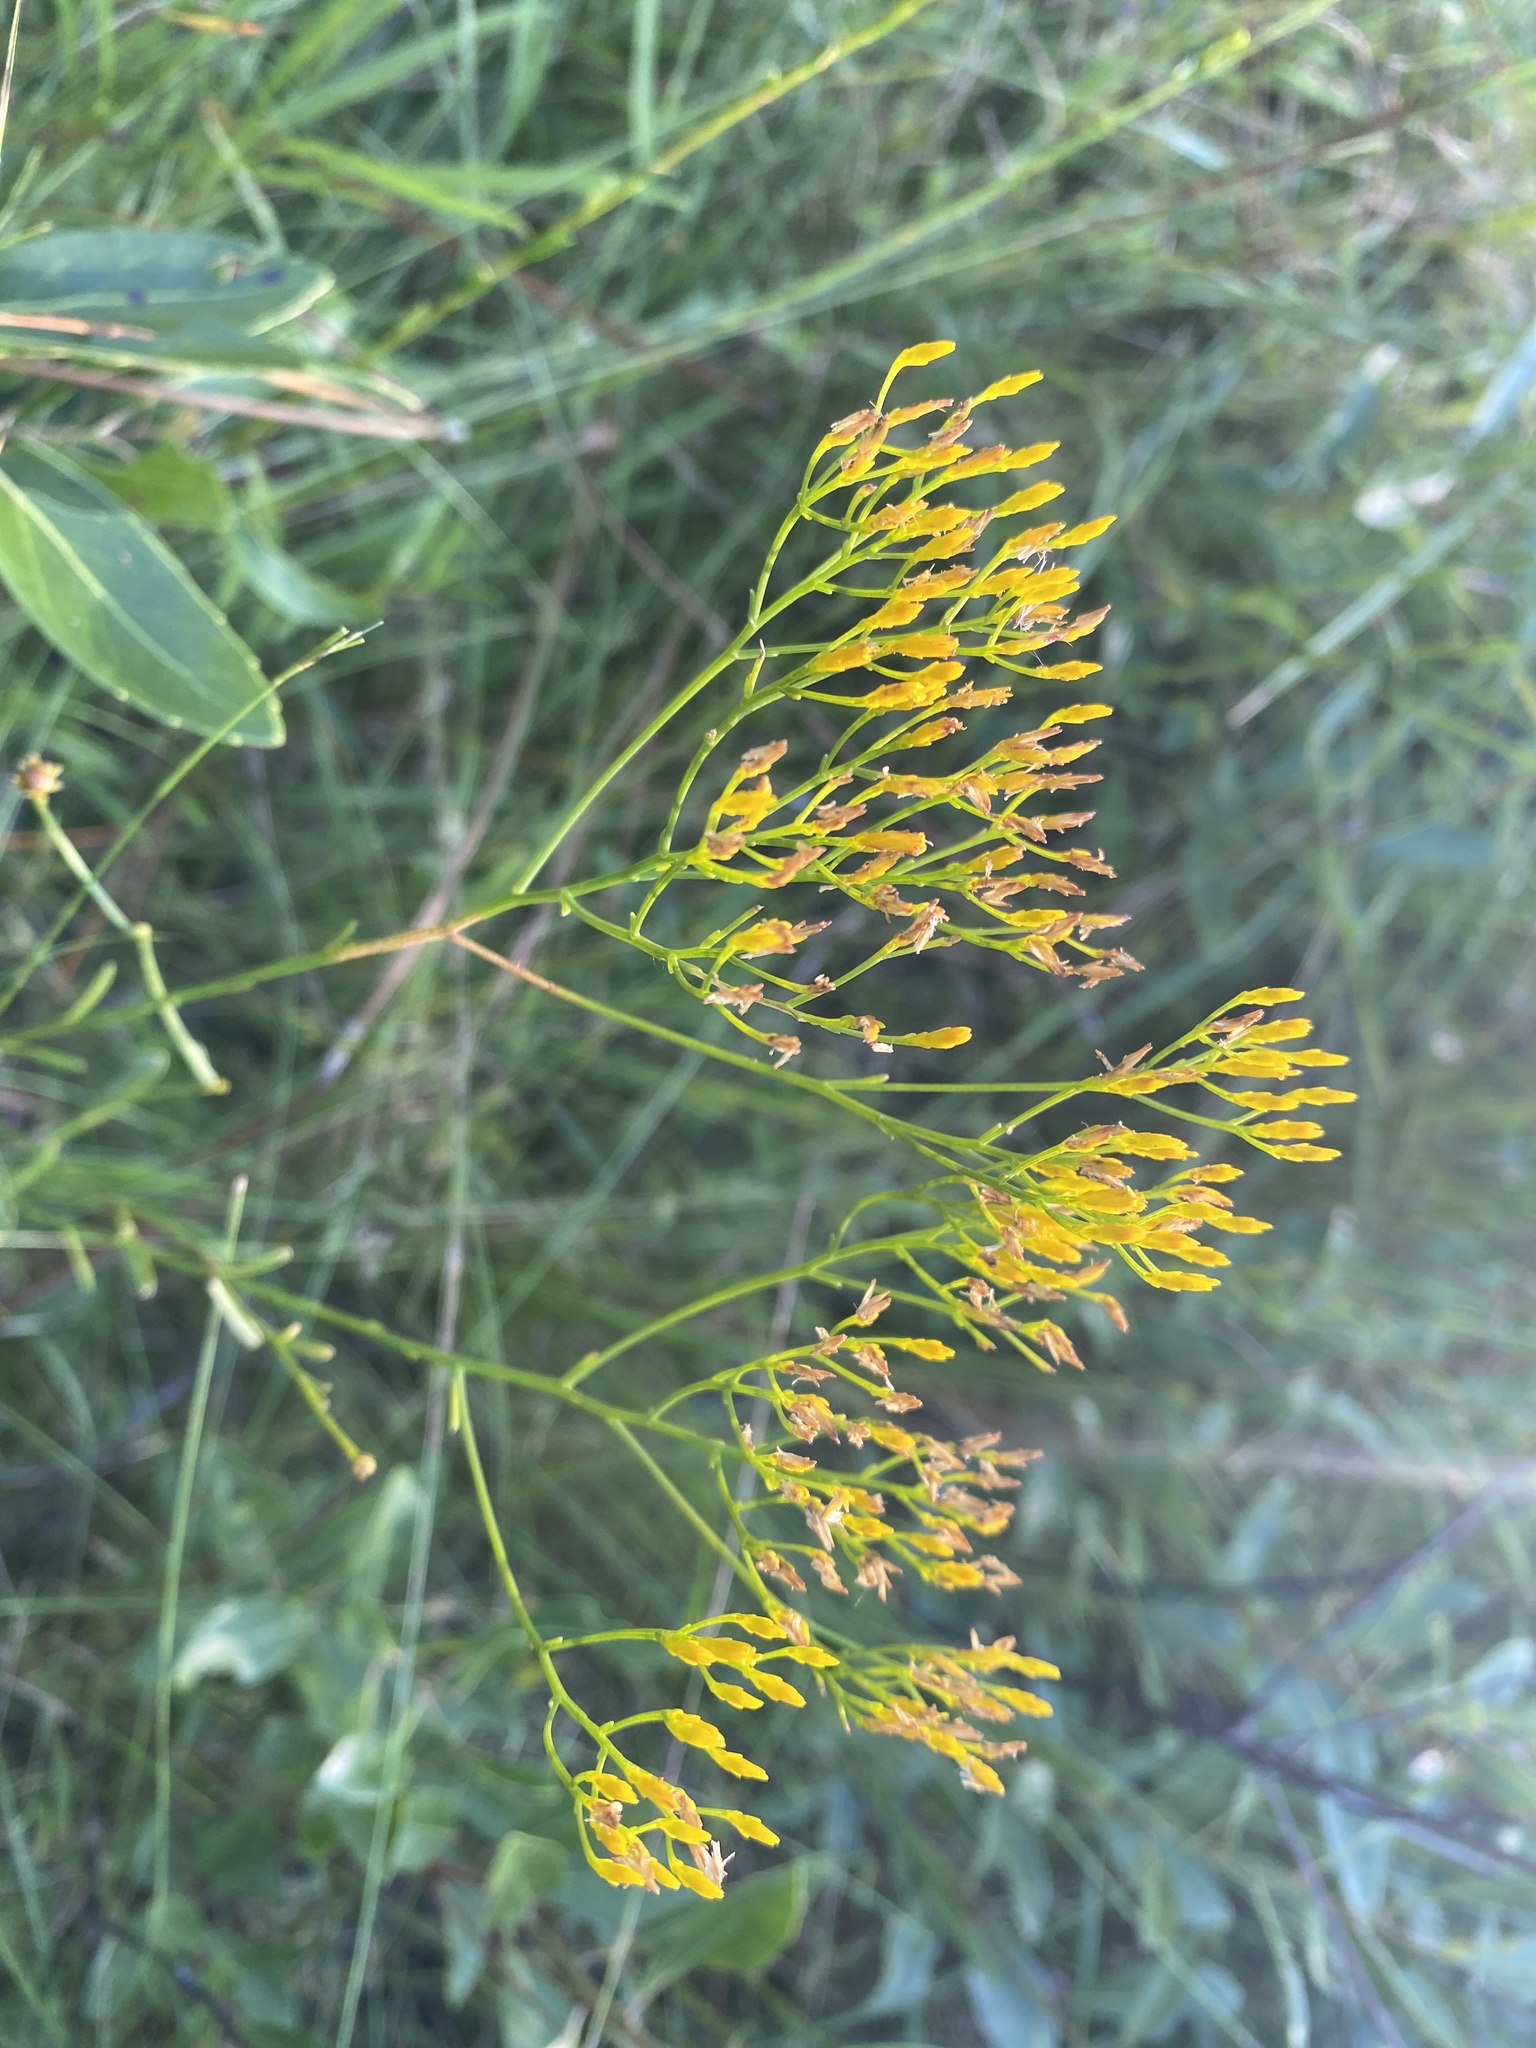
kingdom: Plantae
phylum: Tracheophyta
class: Magnoliopsida
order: Asterales
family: Asteraceae
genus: Bigelowia
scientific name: Bigelowia nudata
